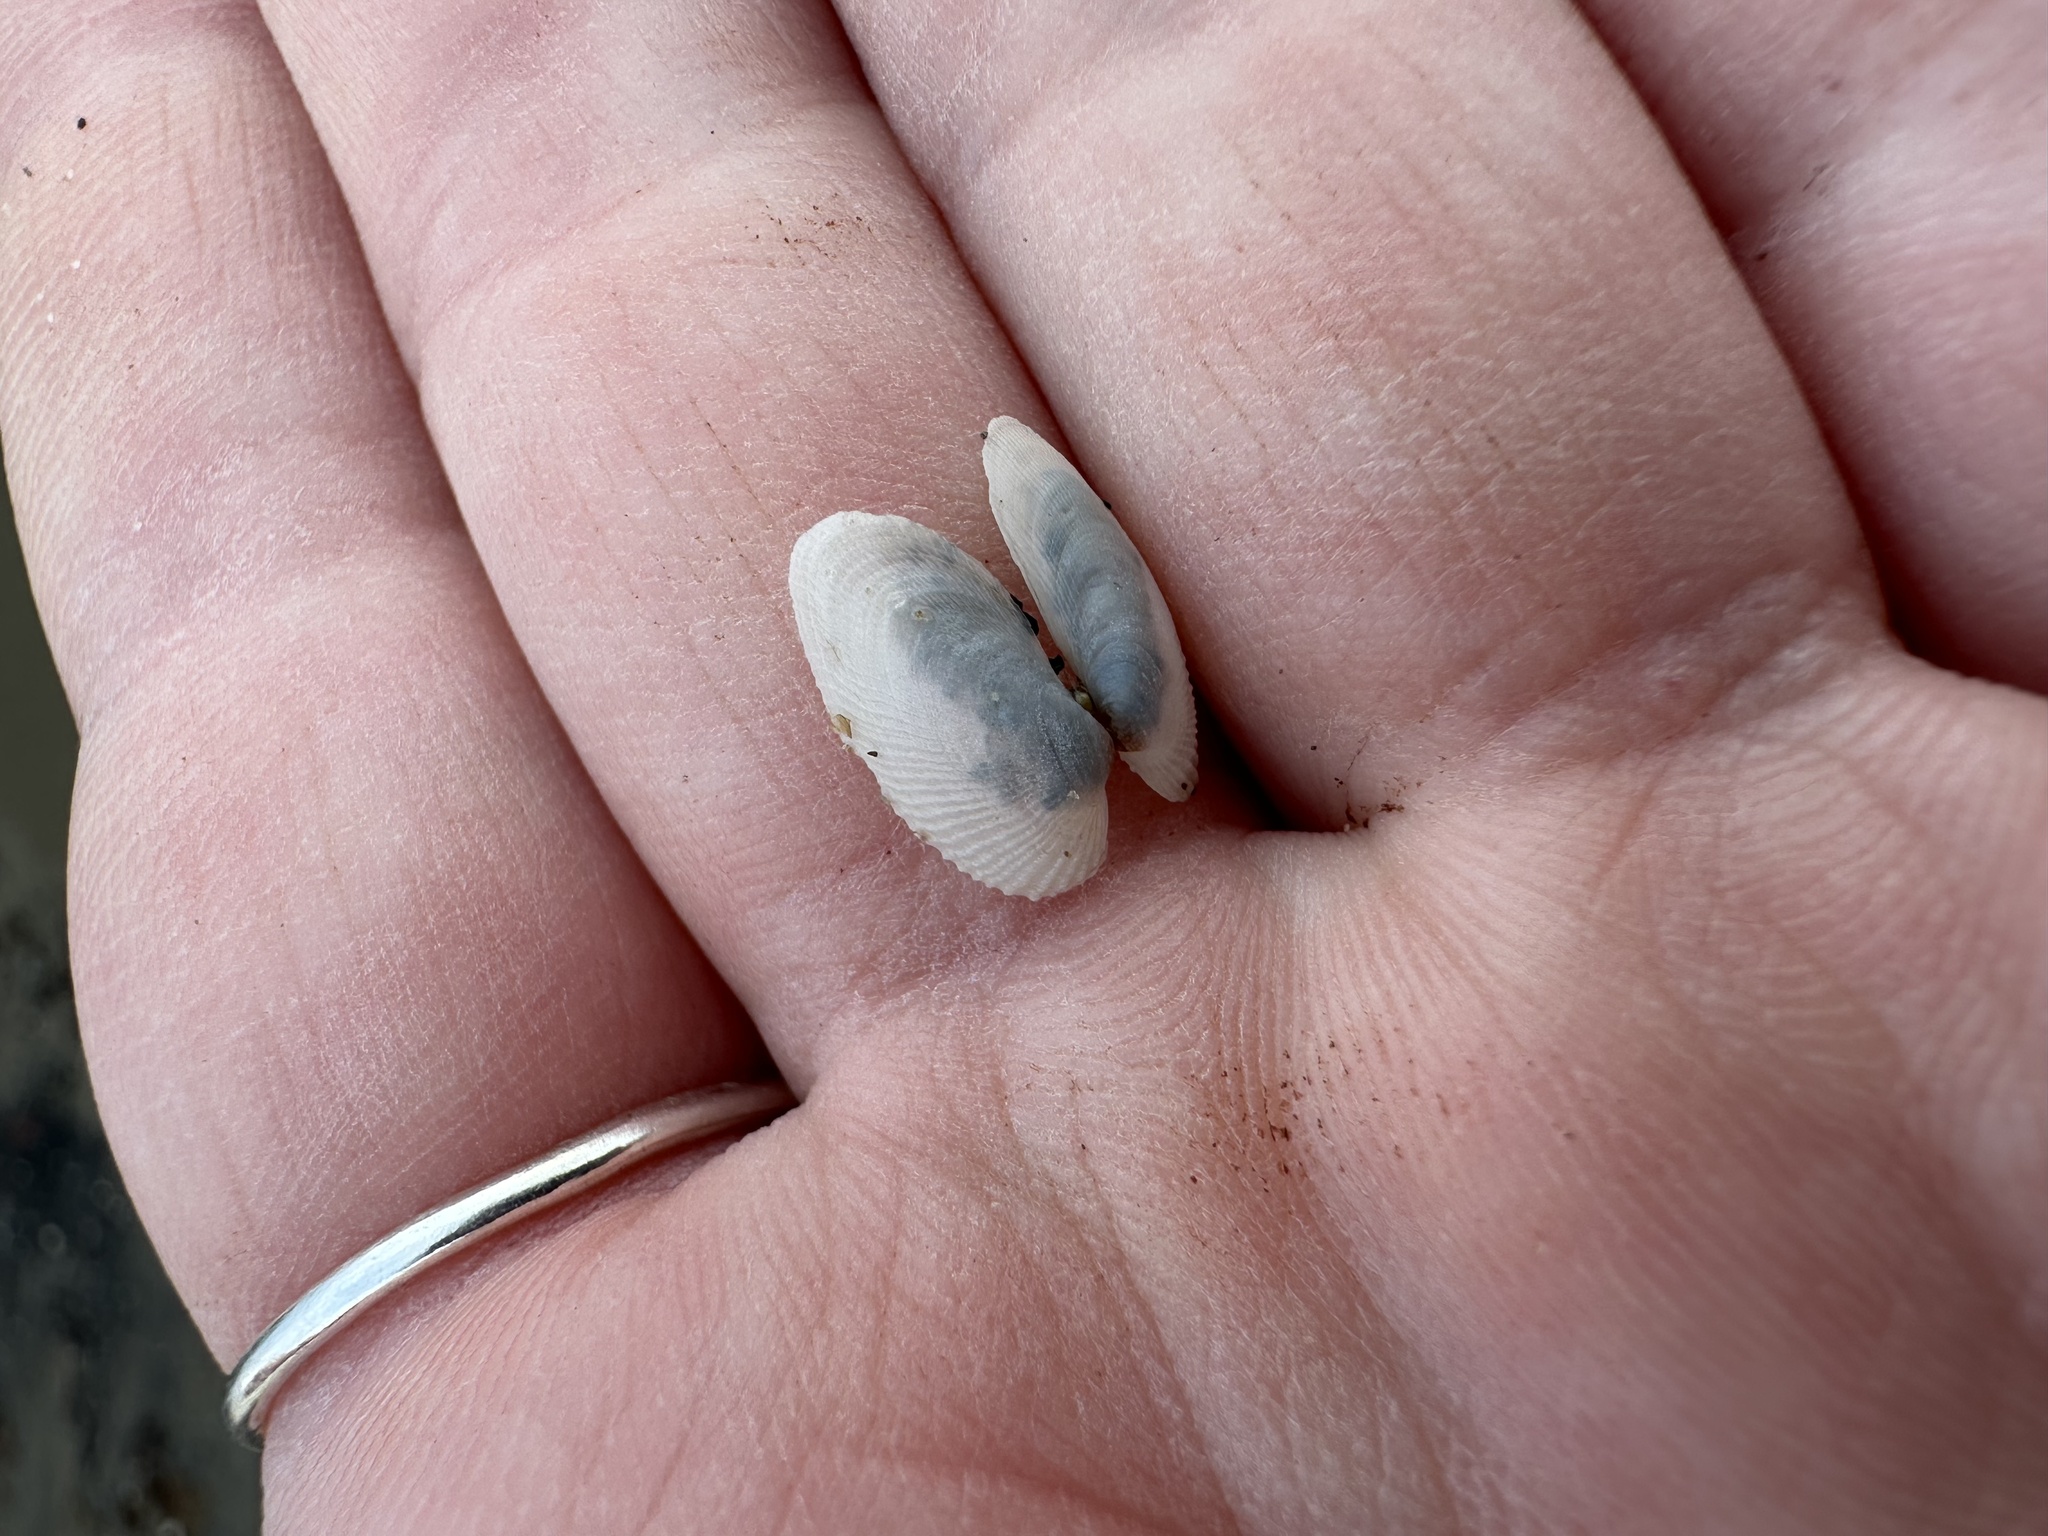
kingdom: Animalia
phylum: Mollusca
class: Bivalvia
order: Venerida
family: Veneridae
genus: Petricolaria
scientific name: Petricolaria pholadiformis
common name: American piddock
